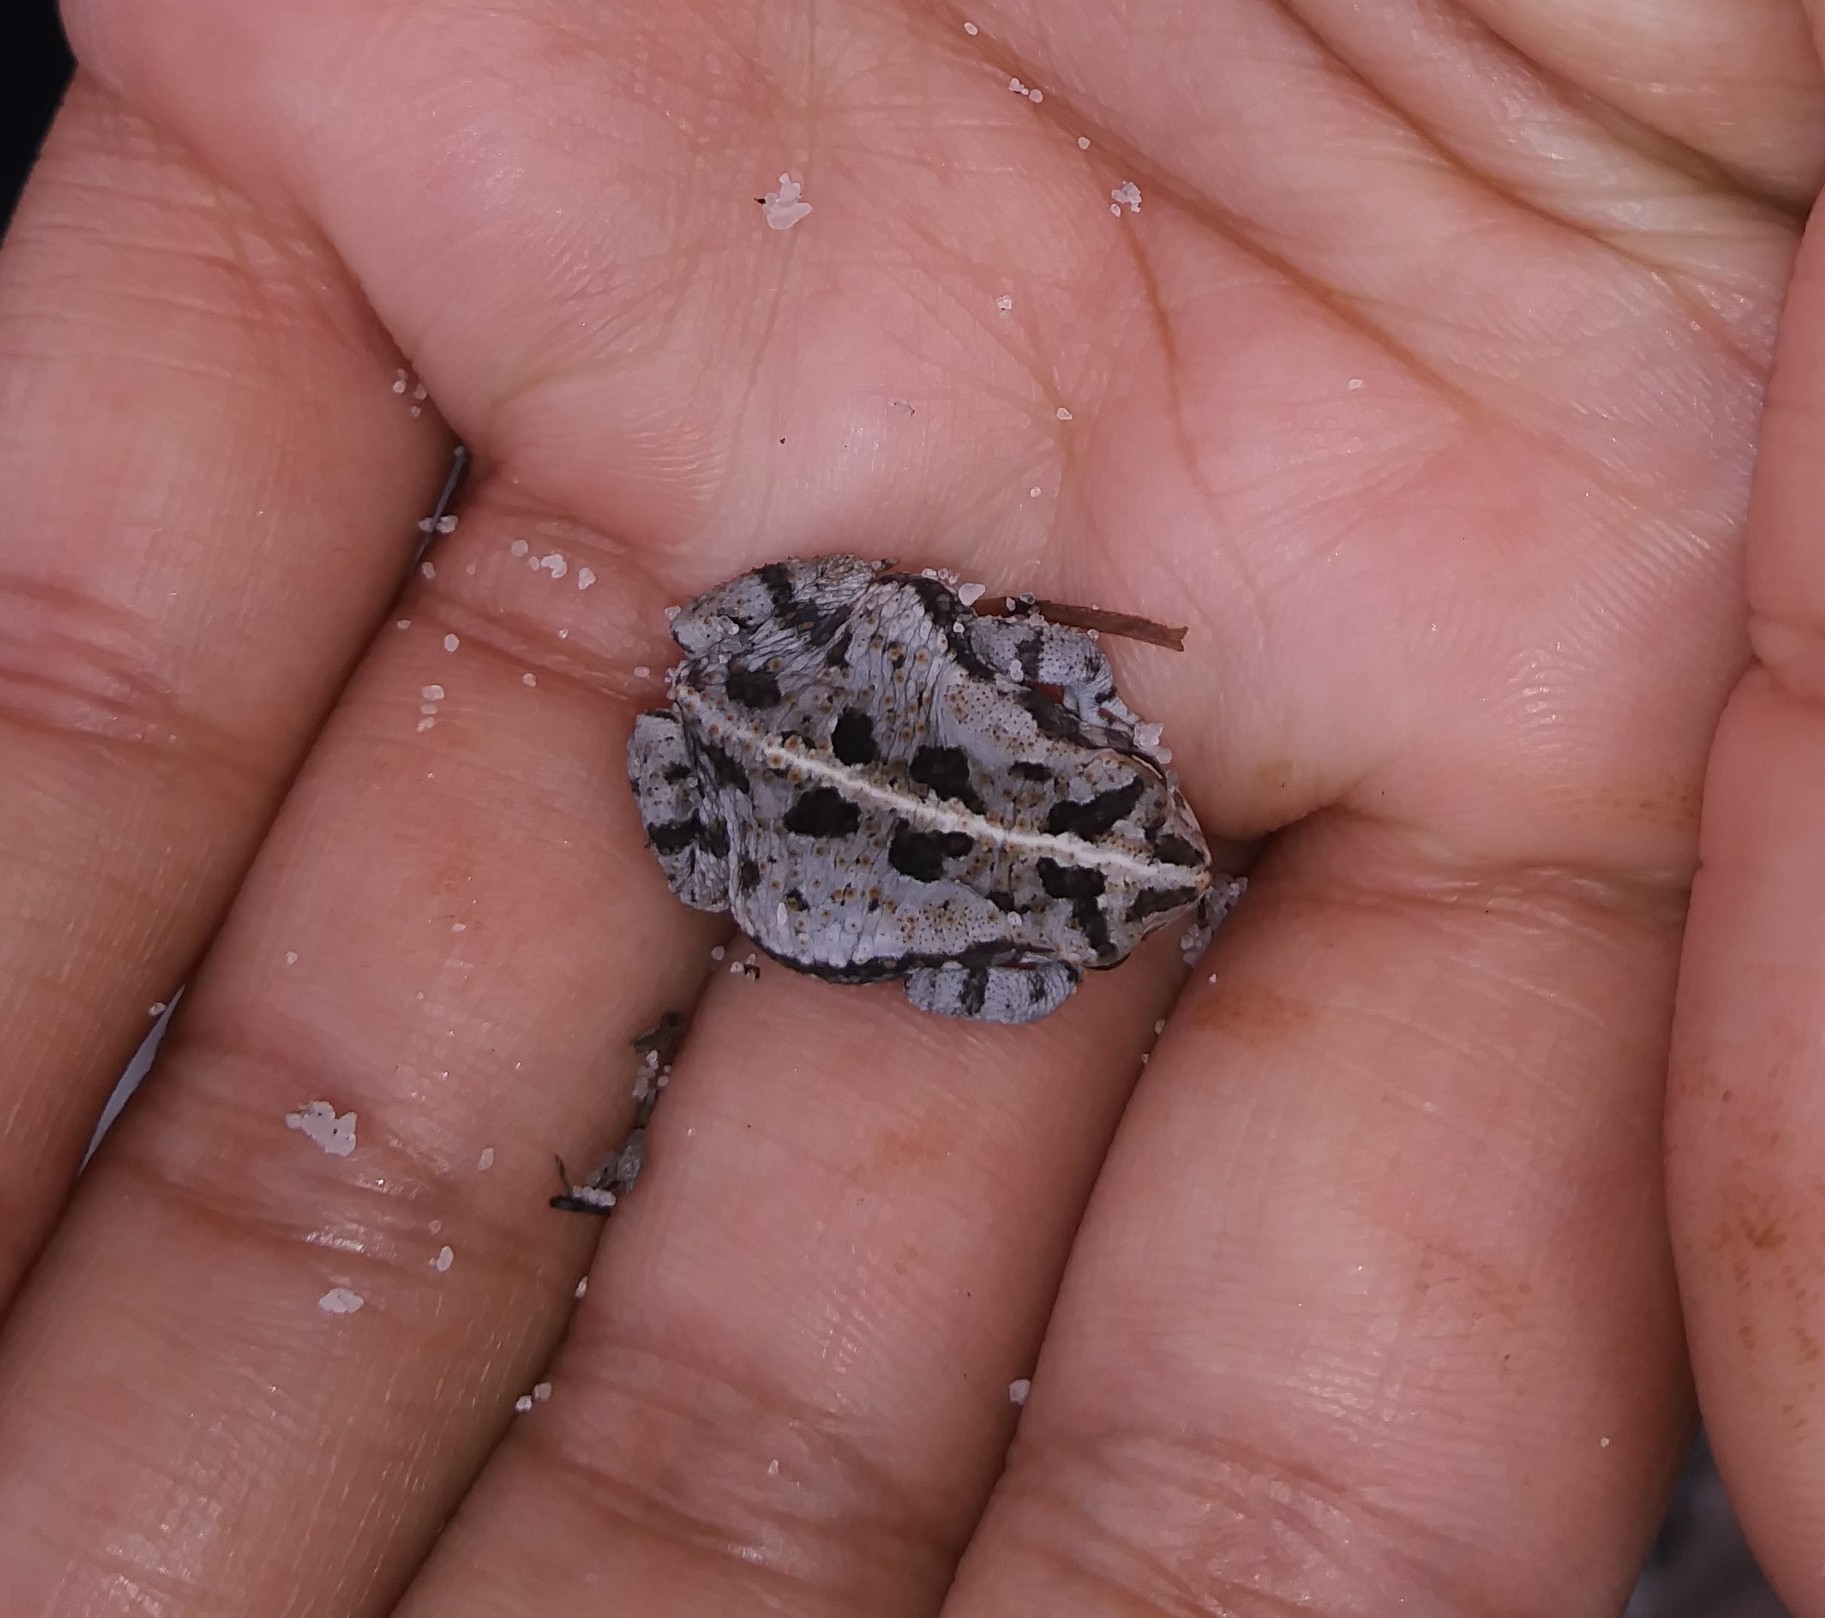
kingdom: Animalia
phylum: Chordata
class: Amphibia
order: Anura
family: Bufonidae
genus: Anaxyrus
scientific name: Anaxyrus quercicus
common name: Oak toad
